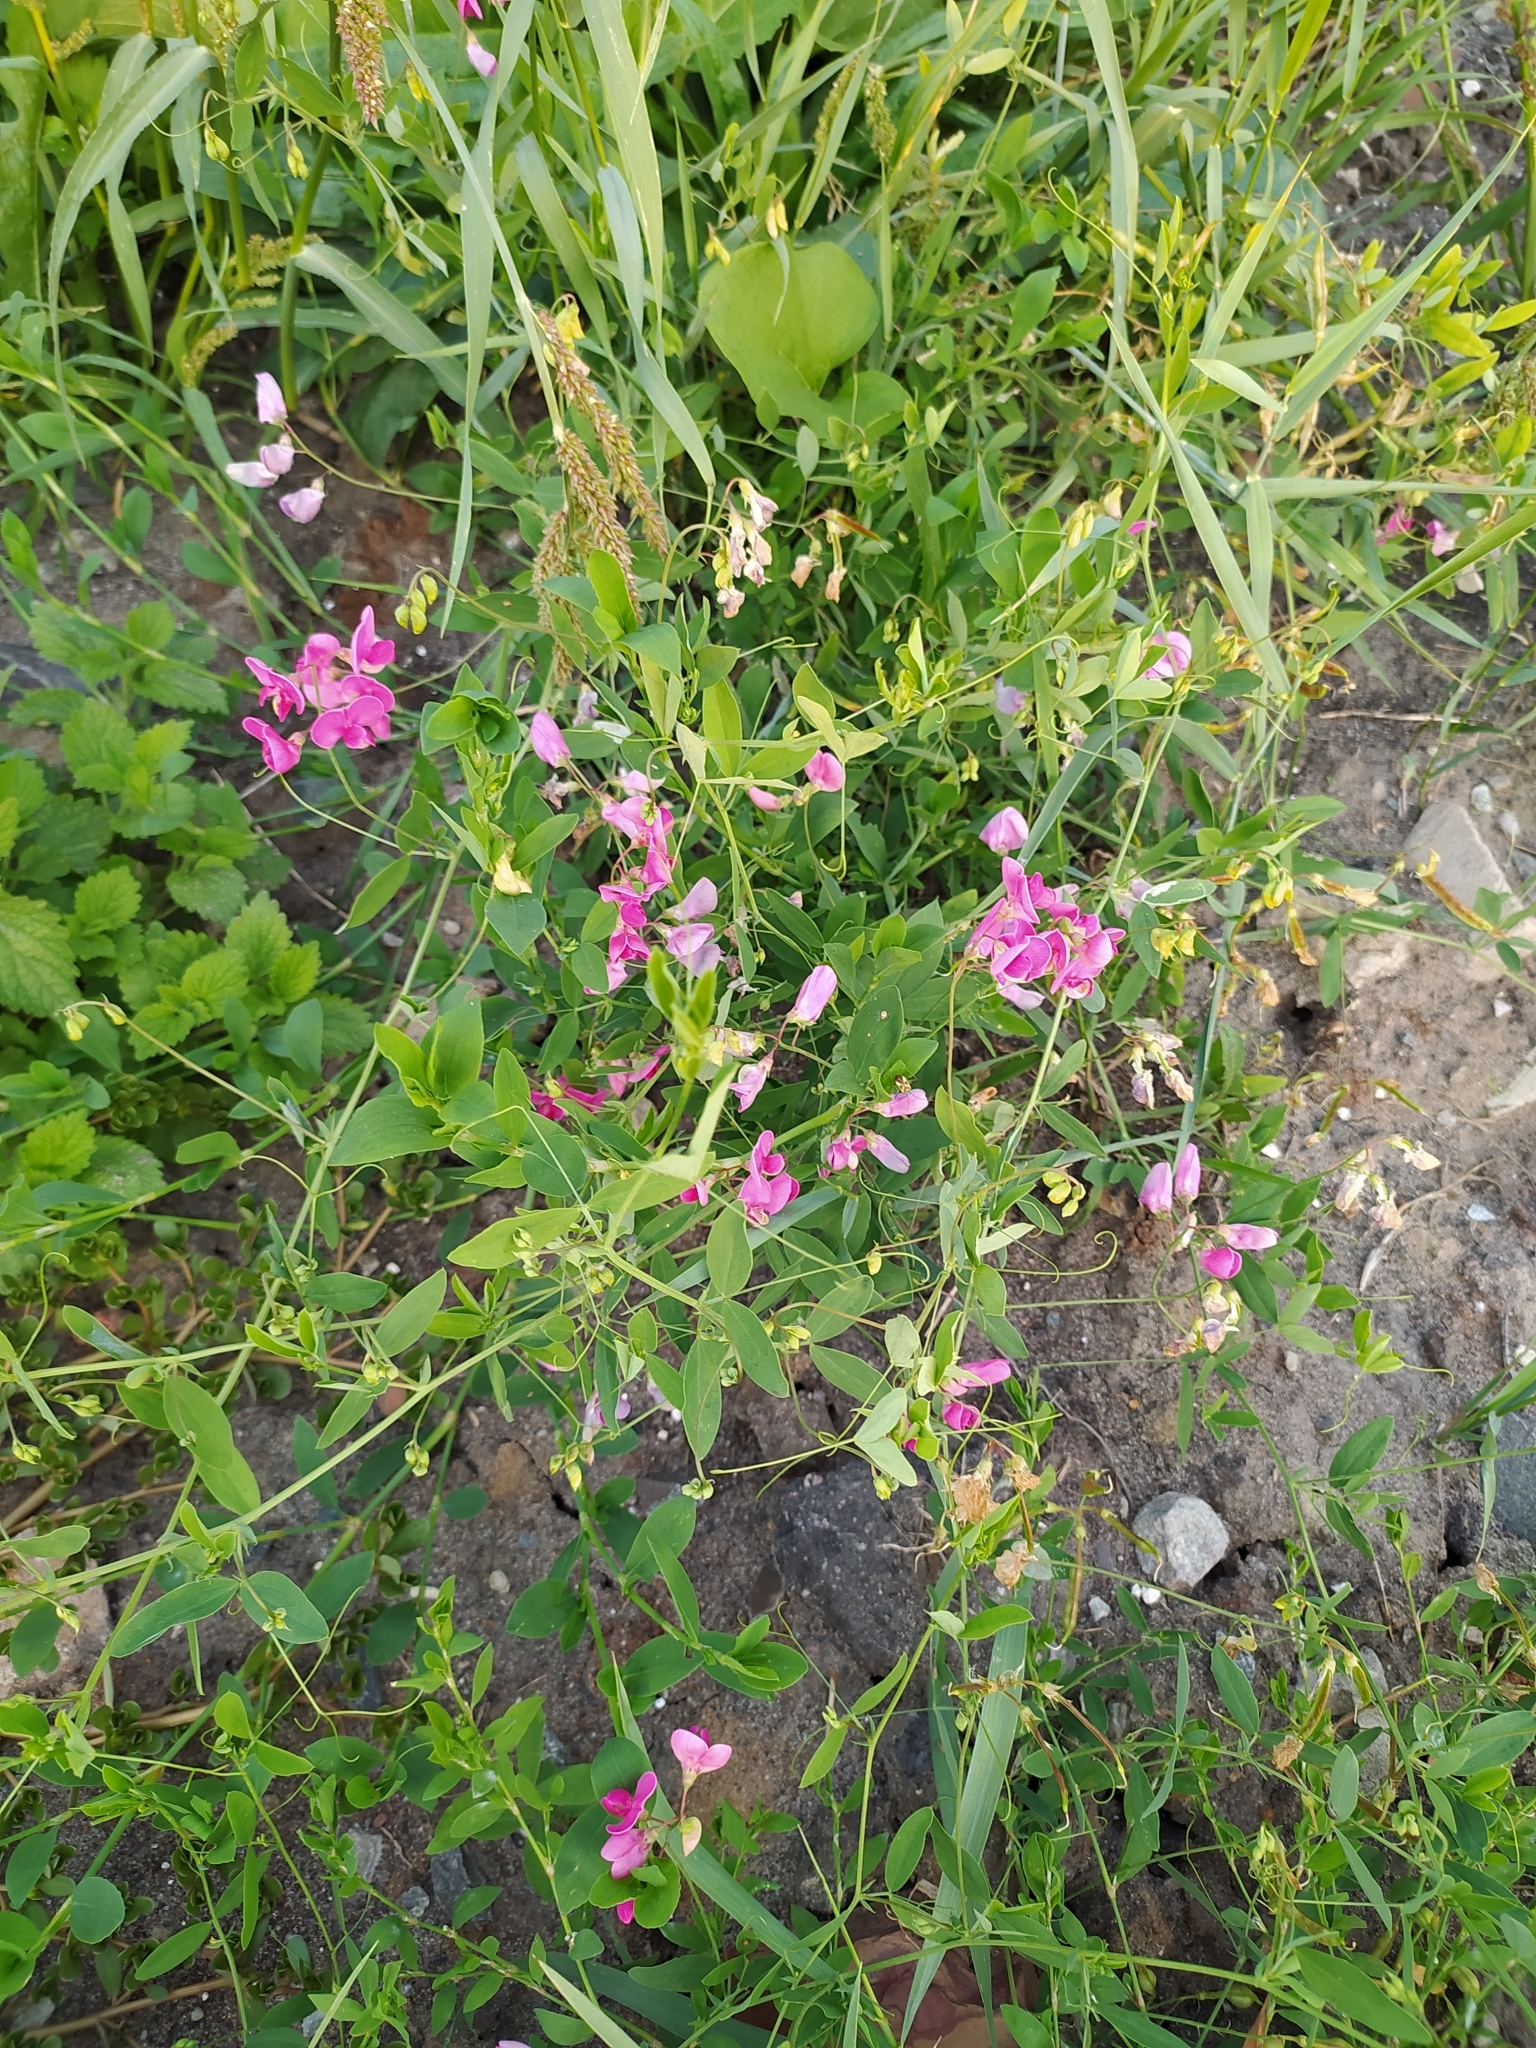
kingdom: Plantae
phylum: Tracheophyta
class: Magnoliopsida
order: Fabales
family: Fabaceae
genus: Lathyrus
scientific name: Lathyrus tuberosus
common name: Tuberous pea
